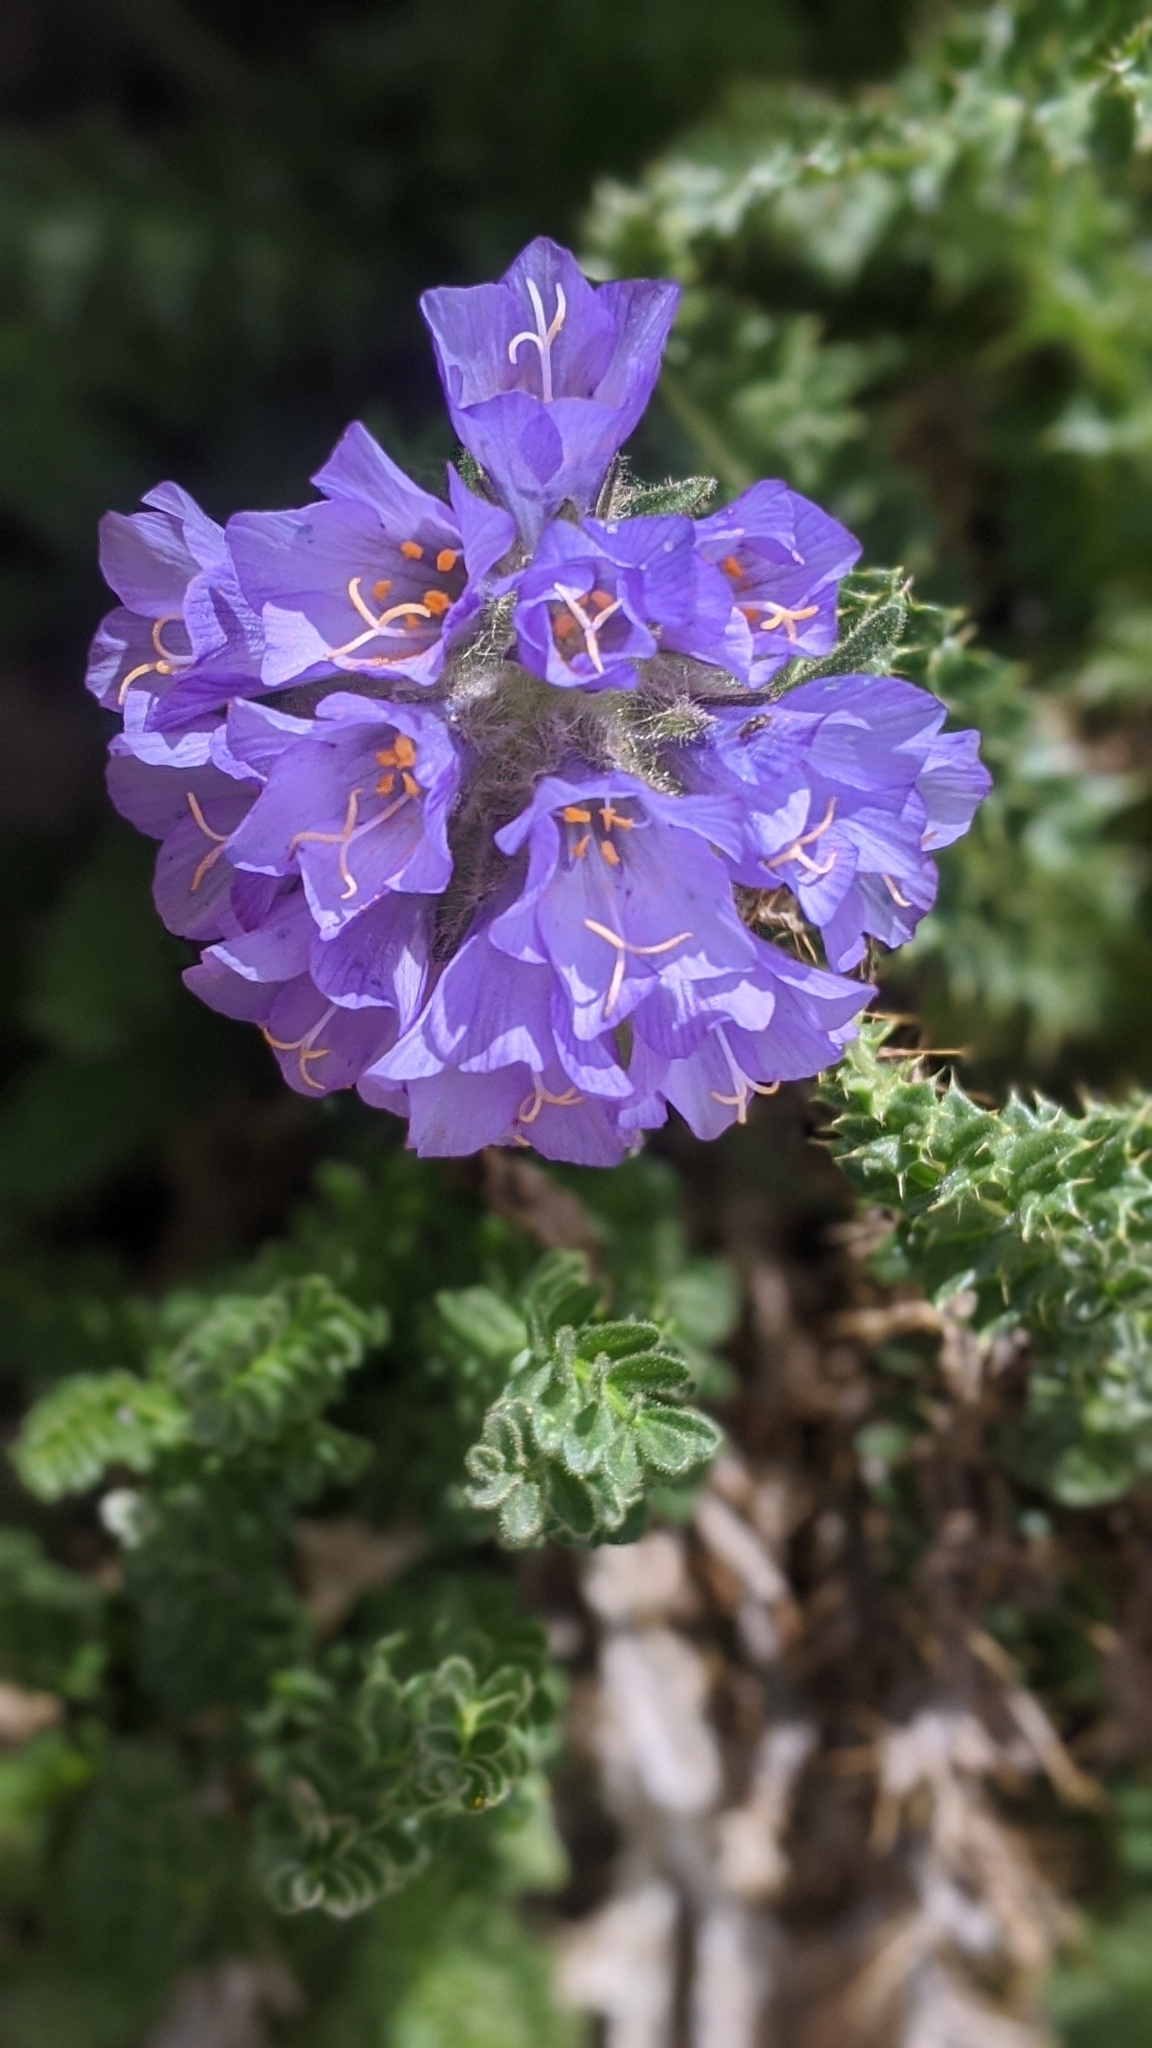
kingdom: Plantae
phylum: Tracheophyta
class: Magnoliopsida
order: Ericales
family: Polemoniaceae
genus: Polemonium
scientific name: Polemonium viscosum
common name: Skunk jacob's-ladder
